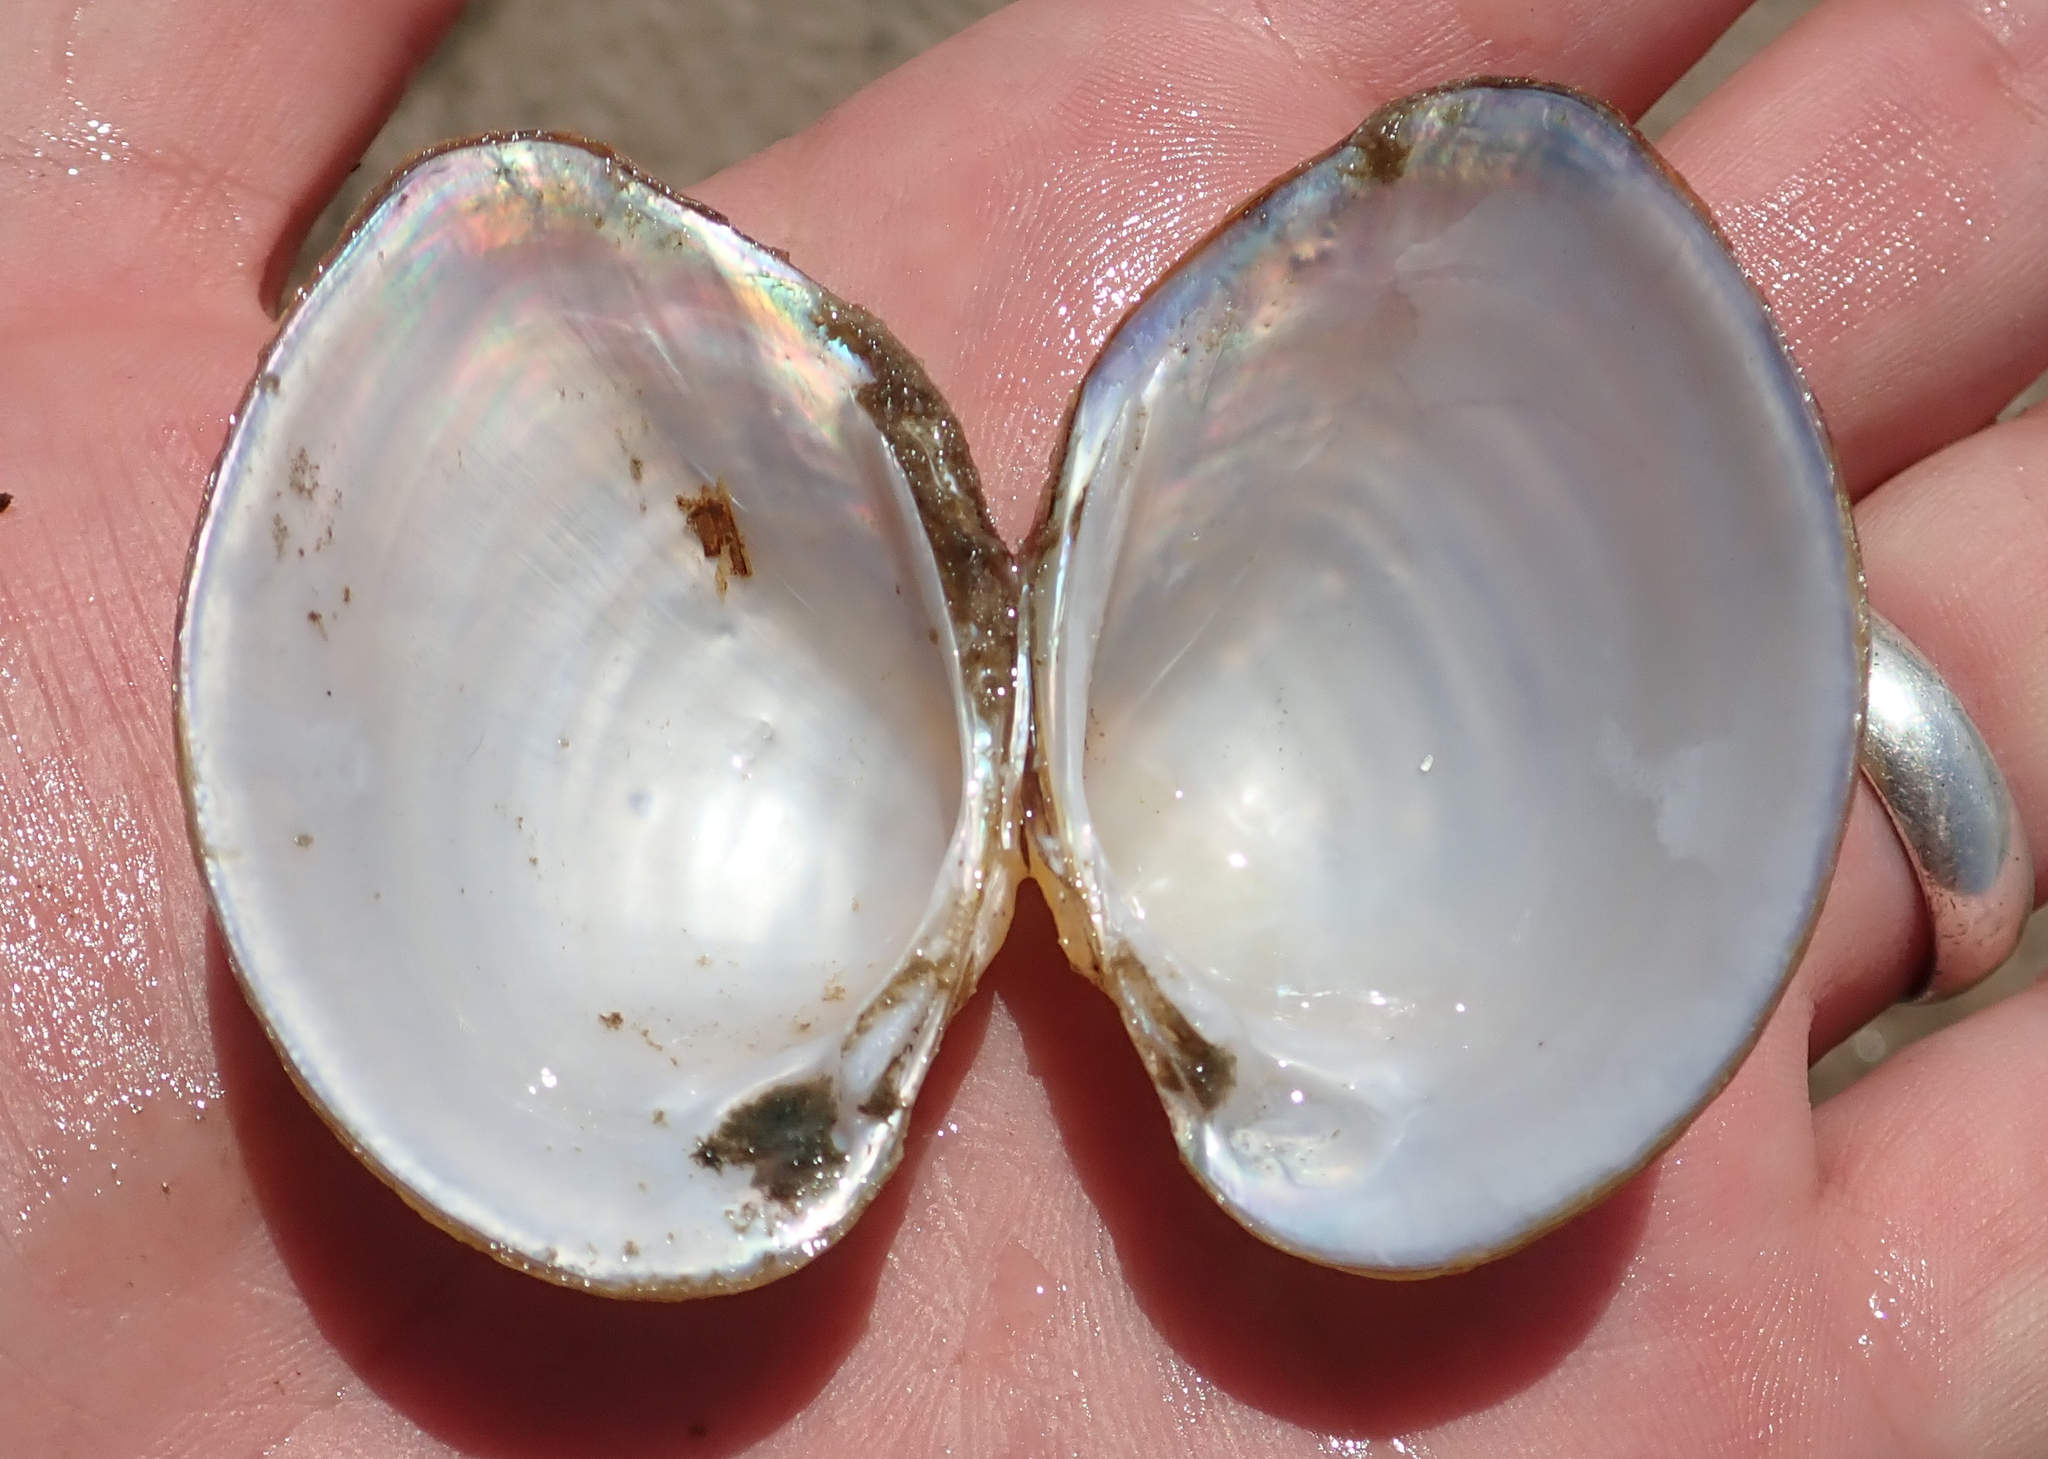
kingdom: Animalia
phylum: Mollusca
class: Bivalvia
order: Unionida
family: Unionidae
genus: Coelatura
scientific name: Coelatura kunenensis
